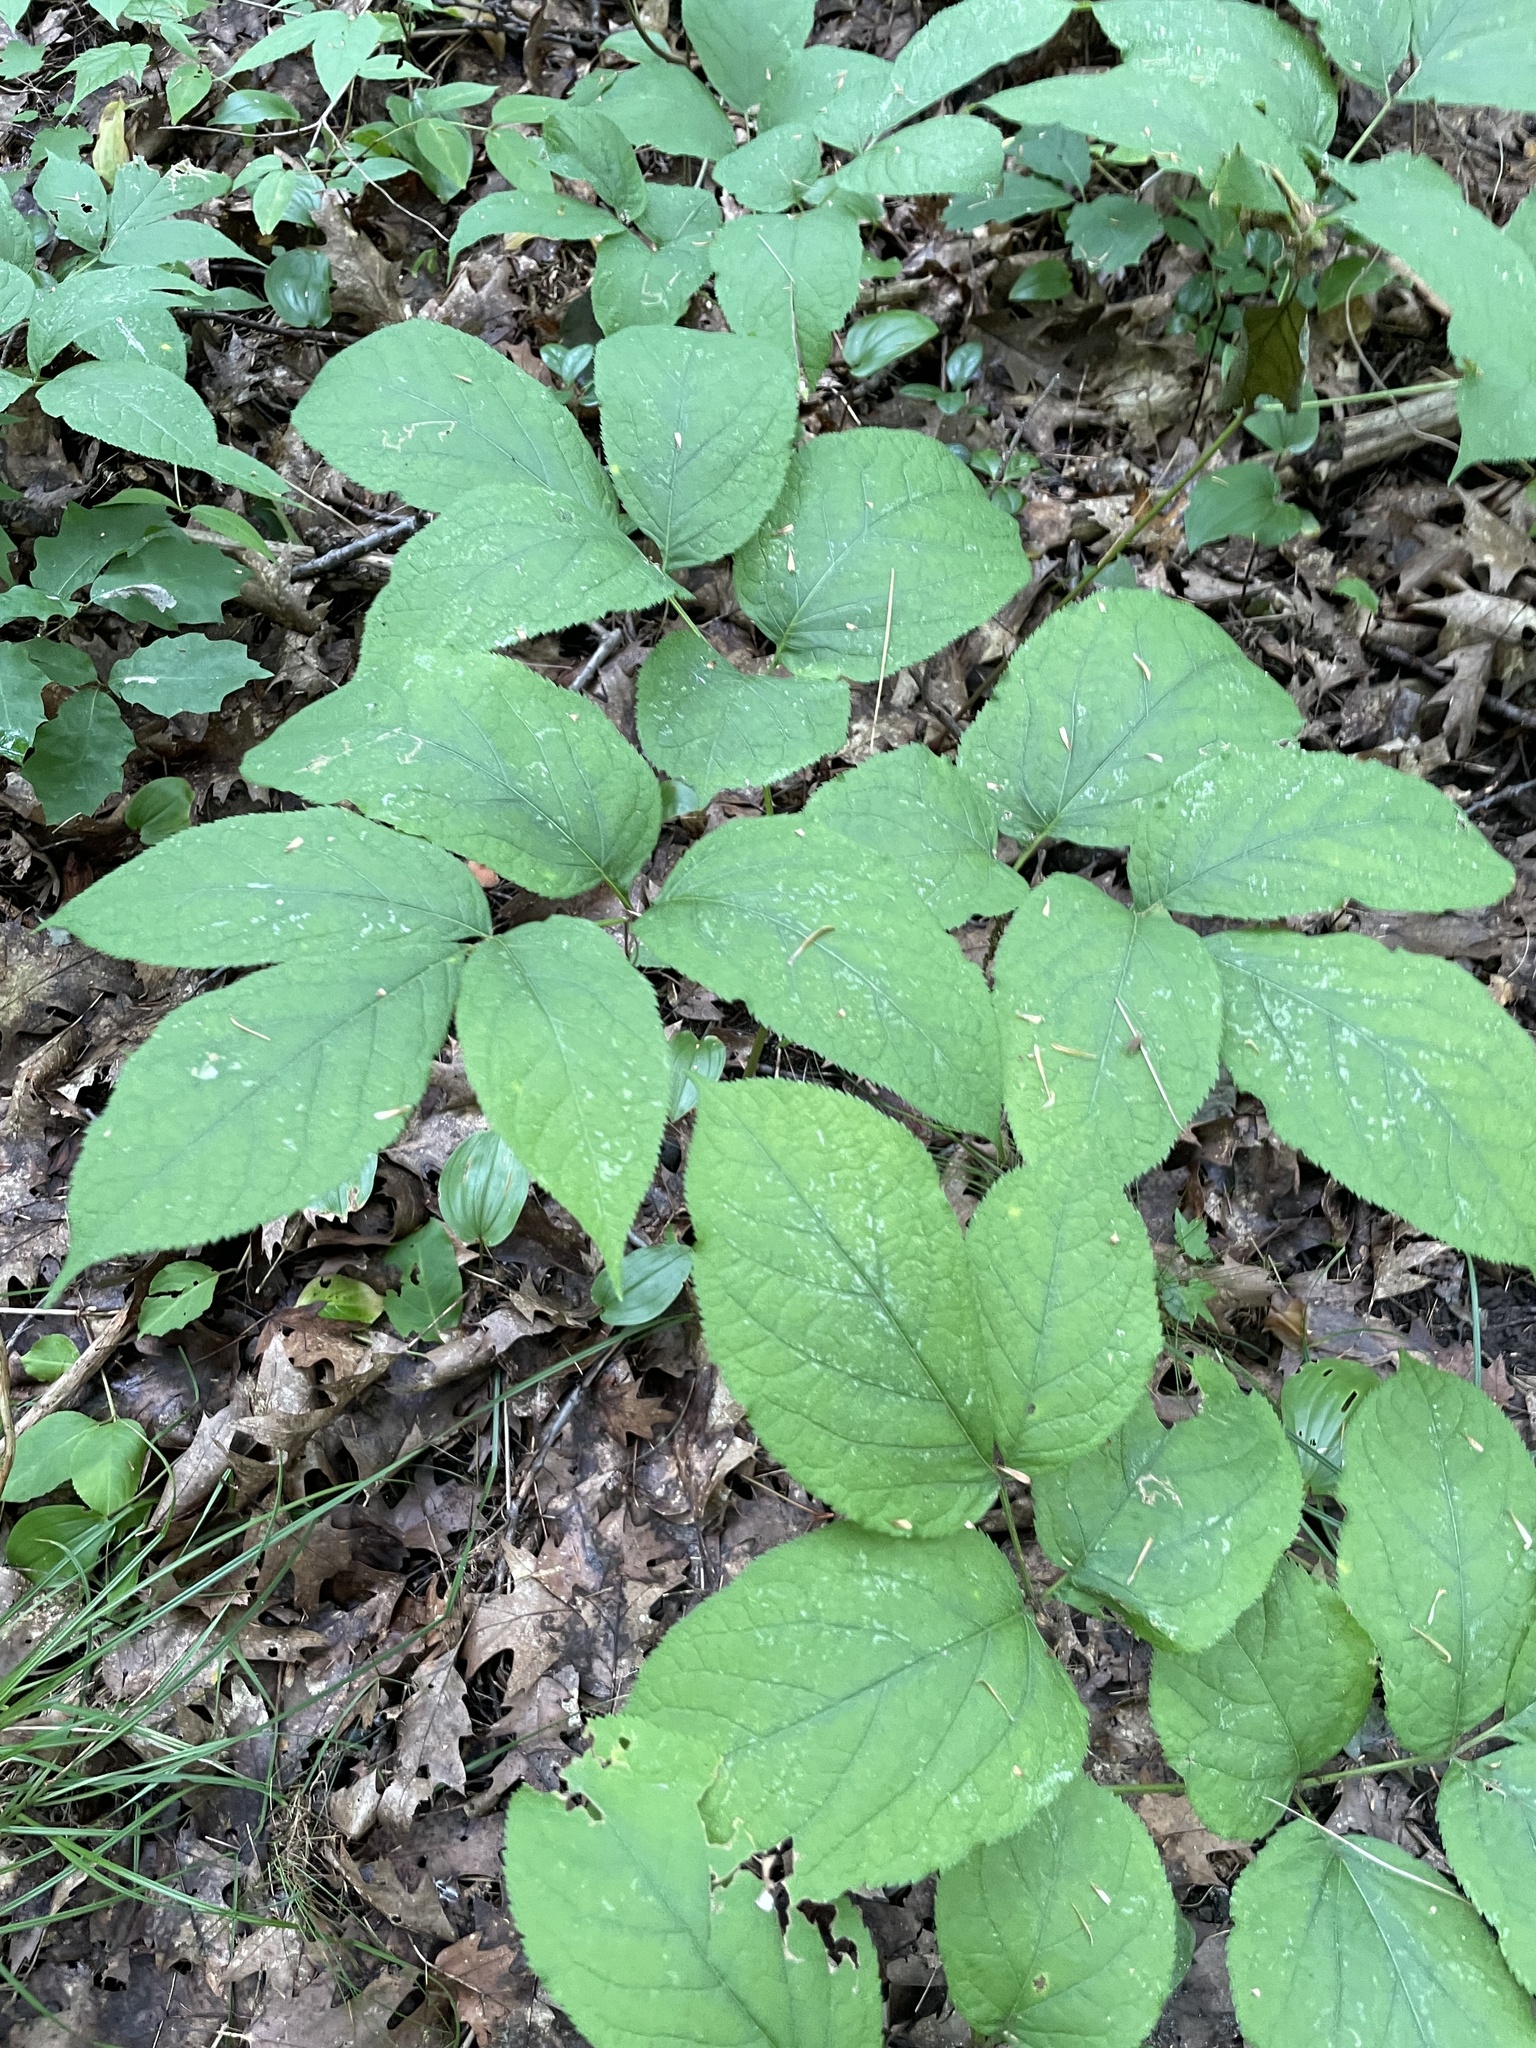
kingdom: Plantae
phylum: Tracheophyta
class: Magnoliopsida
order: Apiales
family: Araliaceae
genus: Aralia
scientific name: Aralia nudicaulis
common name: Wild sarsaparilla
